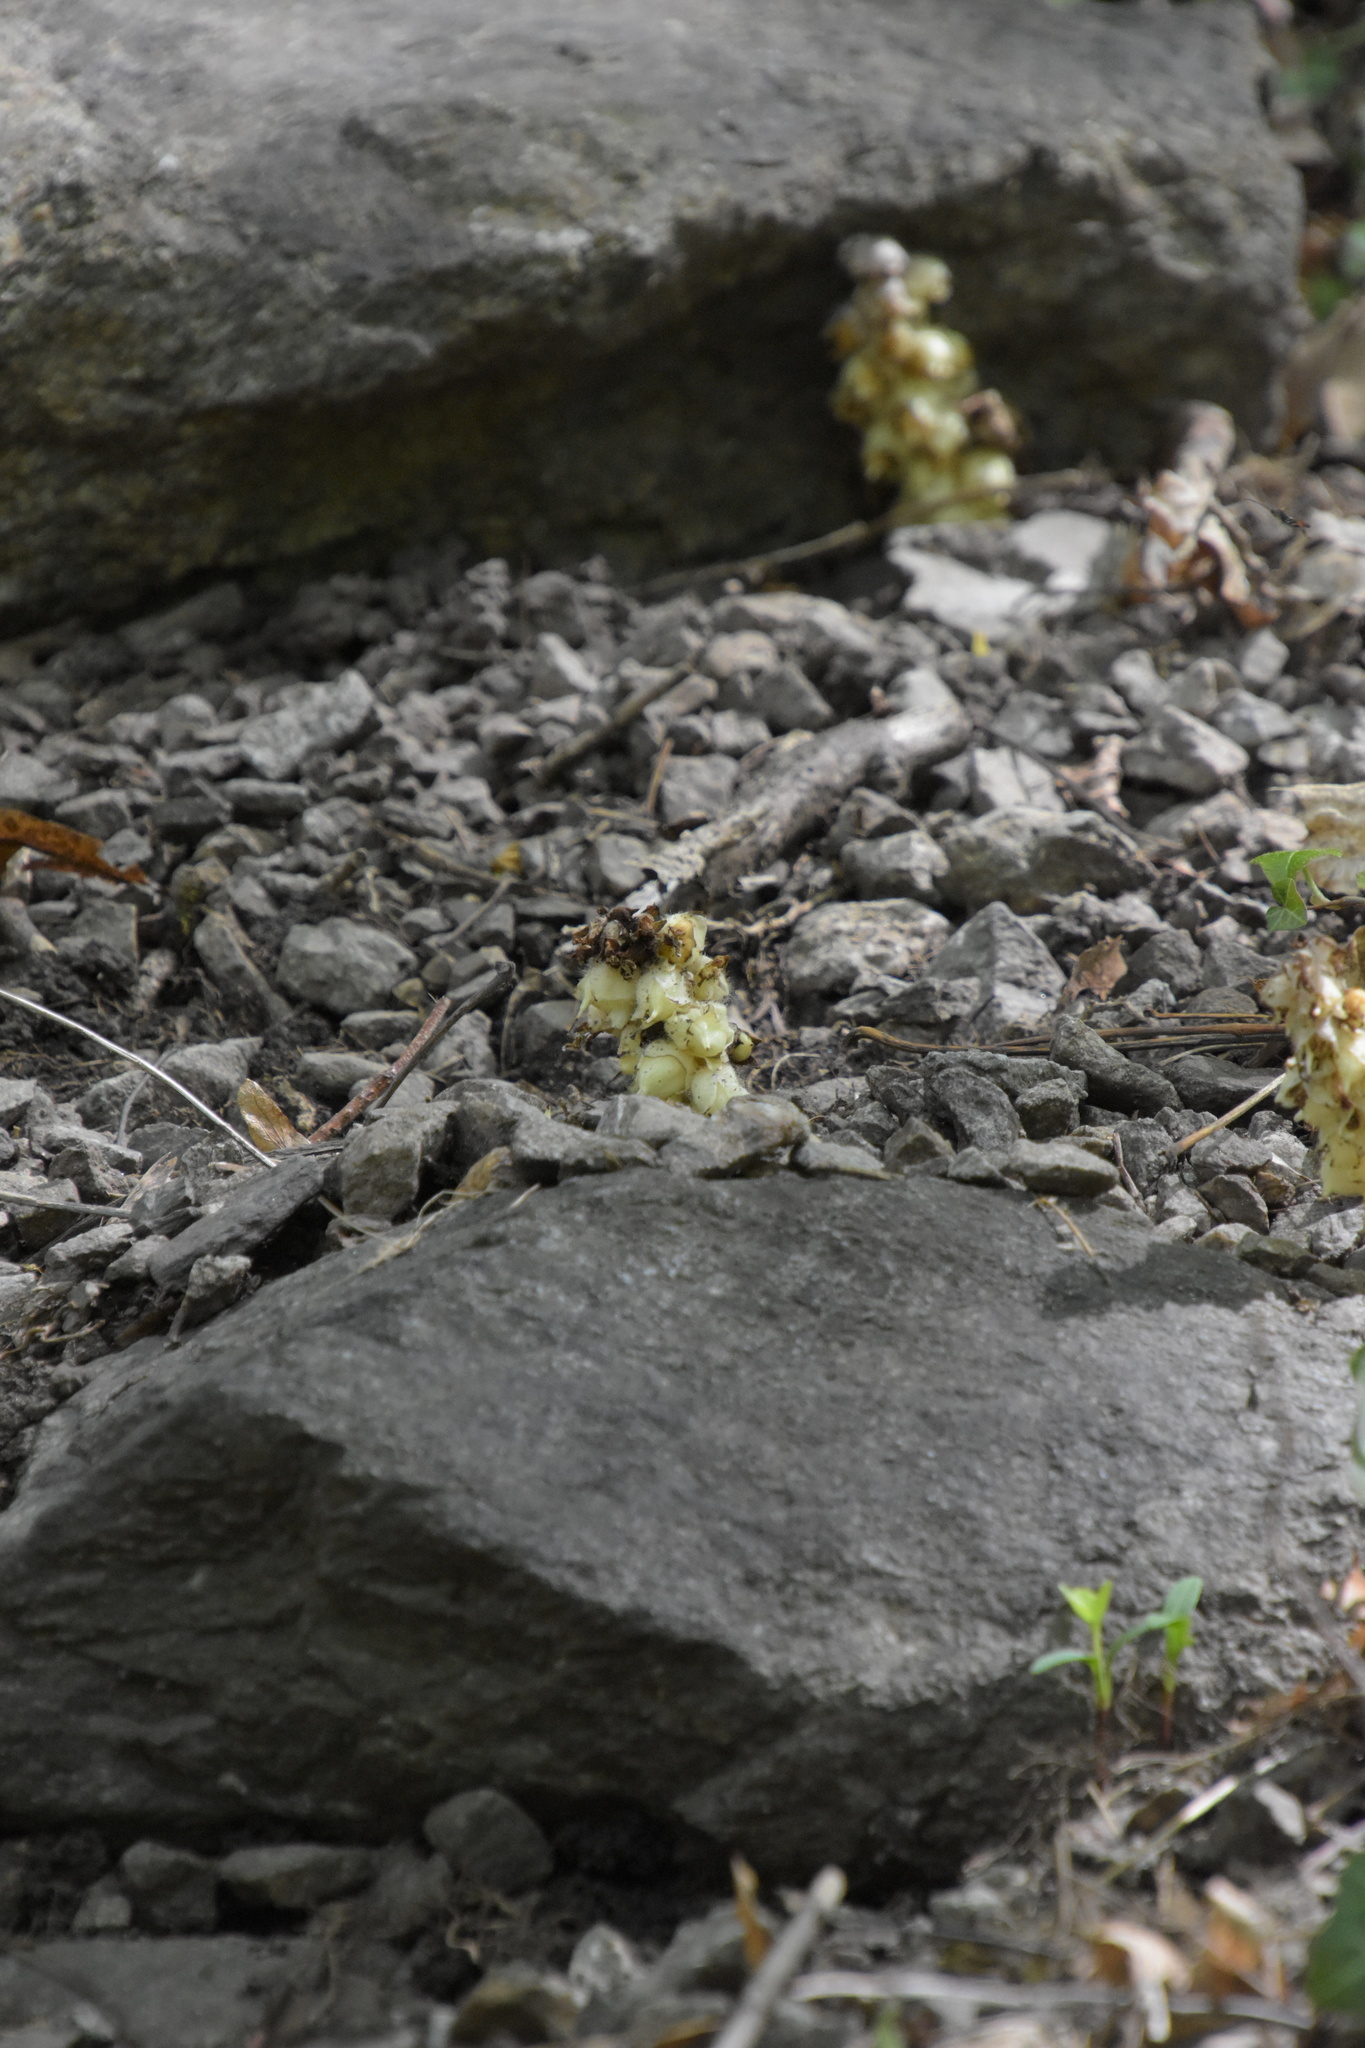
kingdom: Plantae
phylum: Tracheophyta
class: Magnoliopsida
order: Lamiales
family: Orobanchaceae
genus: Lathraea
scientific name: Lathraea squamaria
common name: Toothwort
